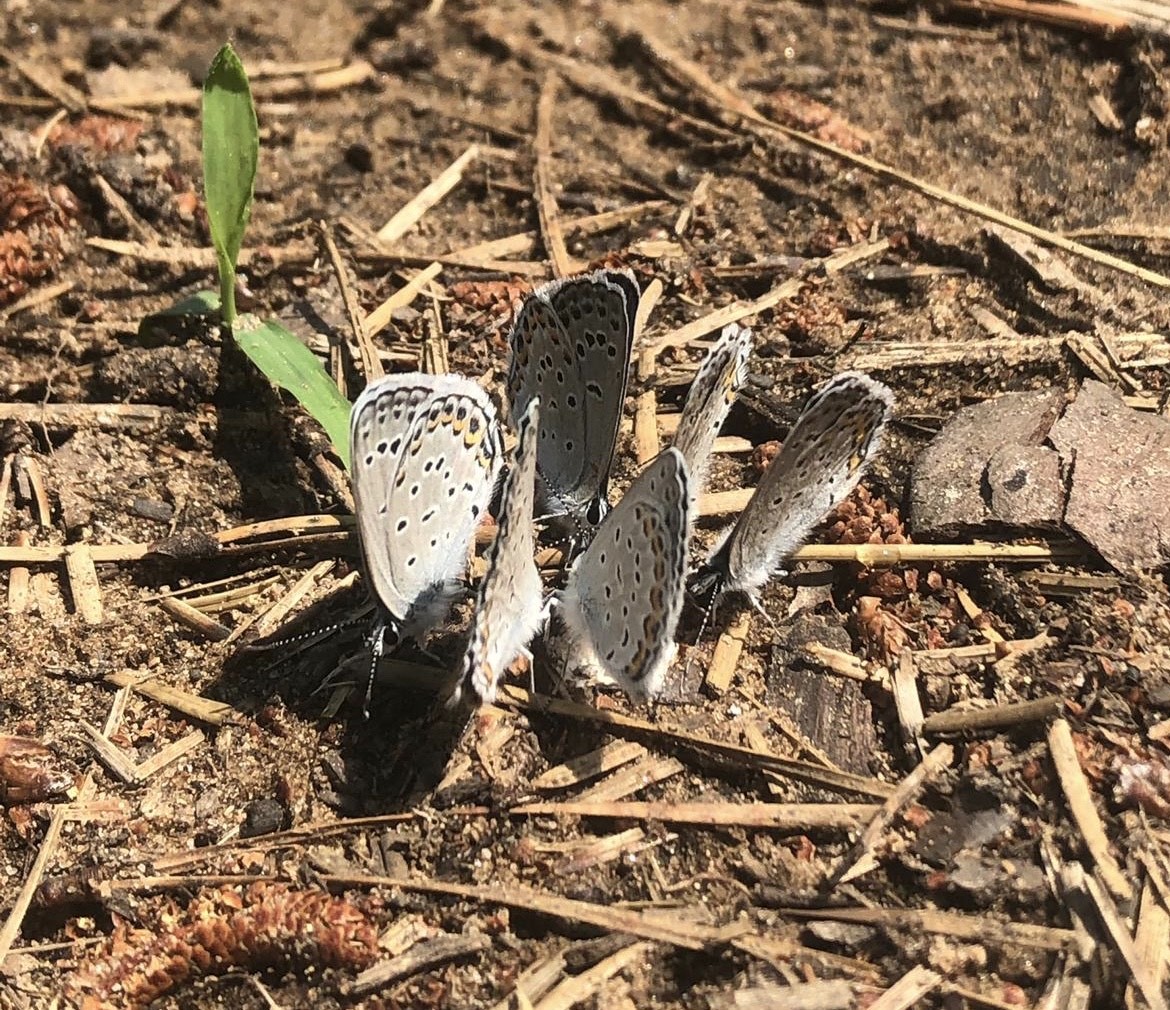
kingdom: Animalia
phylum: Arthropoda
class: Insecta
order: Lepidoptera
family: Lycaenidae
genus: Plebejus
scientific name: Plebejus samuelis
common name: Karner blue
